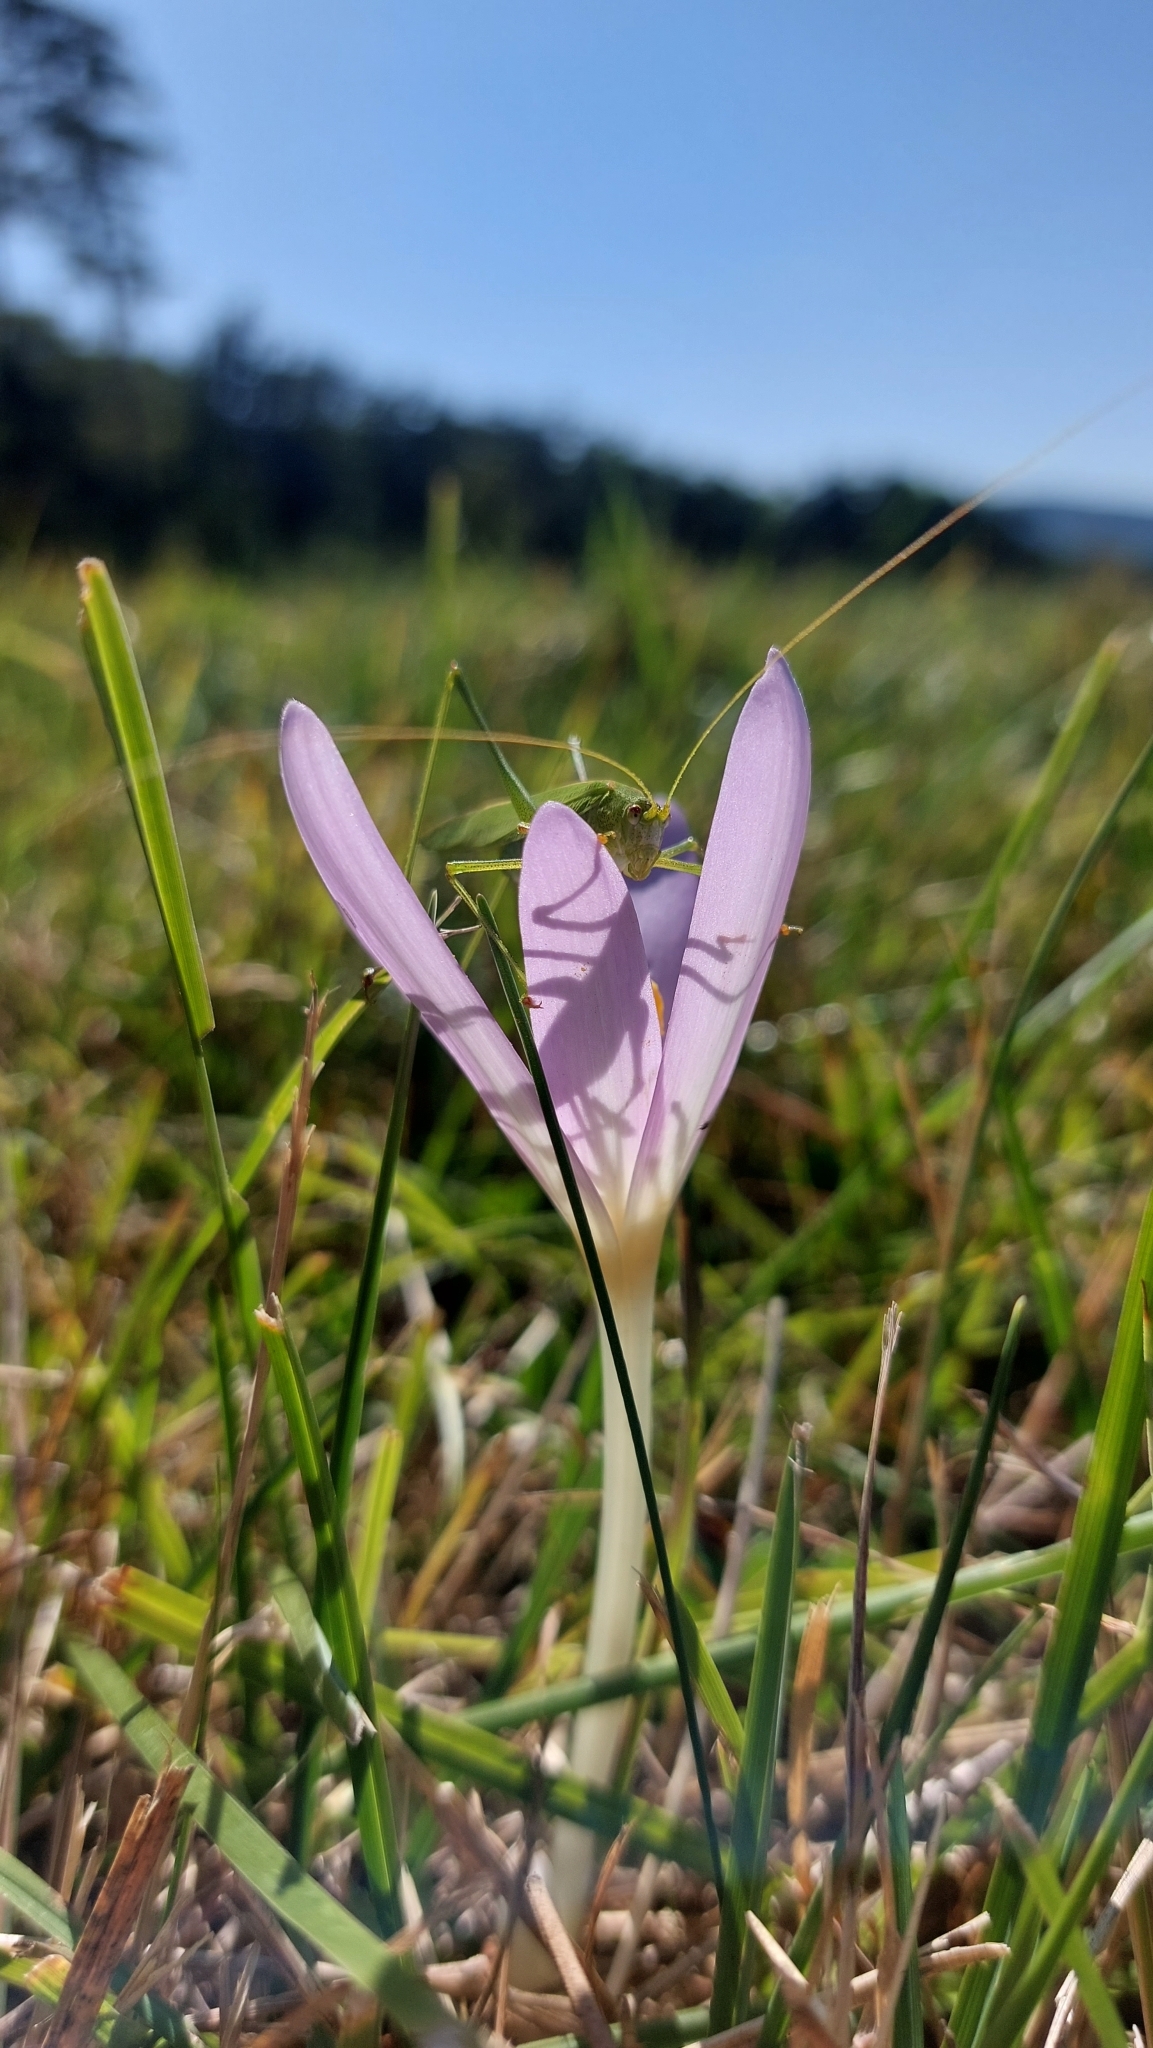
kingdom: Animalia
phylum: Arthropoda
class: Insecta
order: Orthoptera
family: Tettigoniidae
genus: Phaneroptera
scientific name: Phaneroptera falcata
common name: Sickle-bearing bush-cricket
